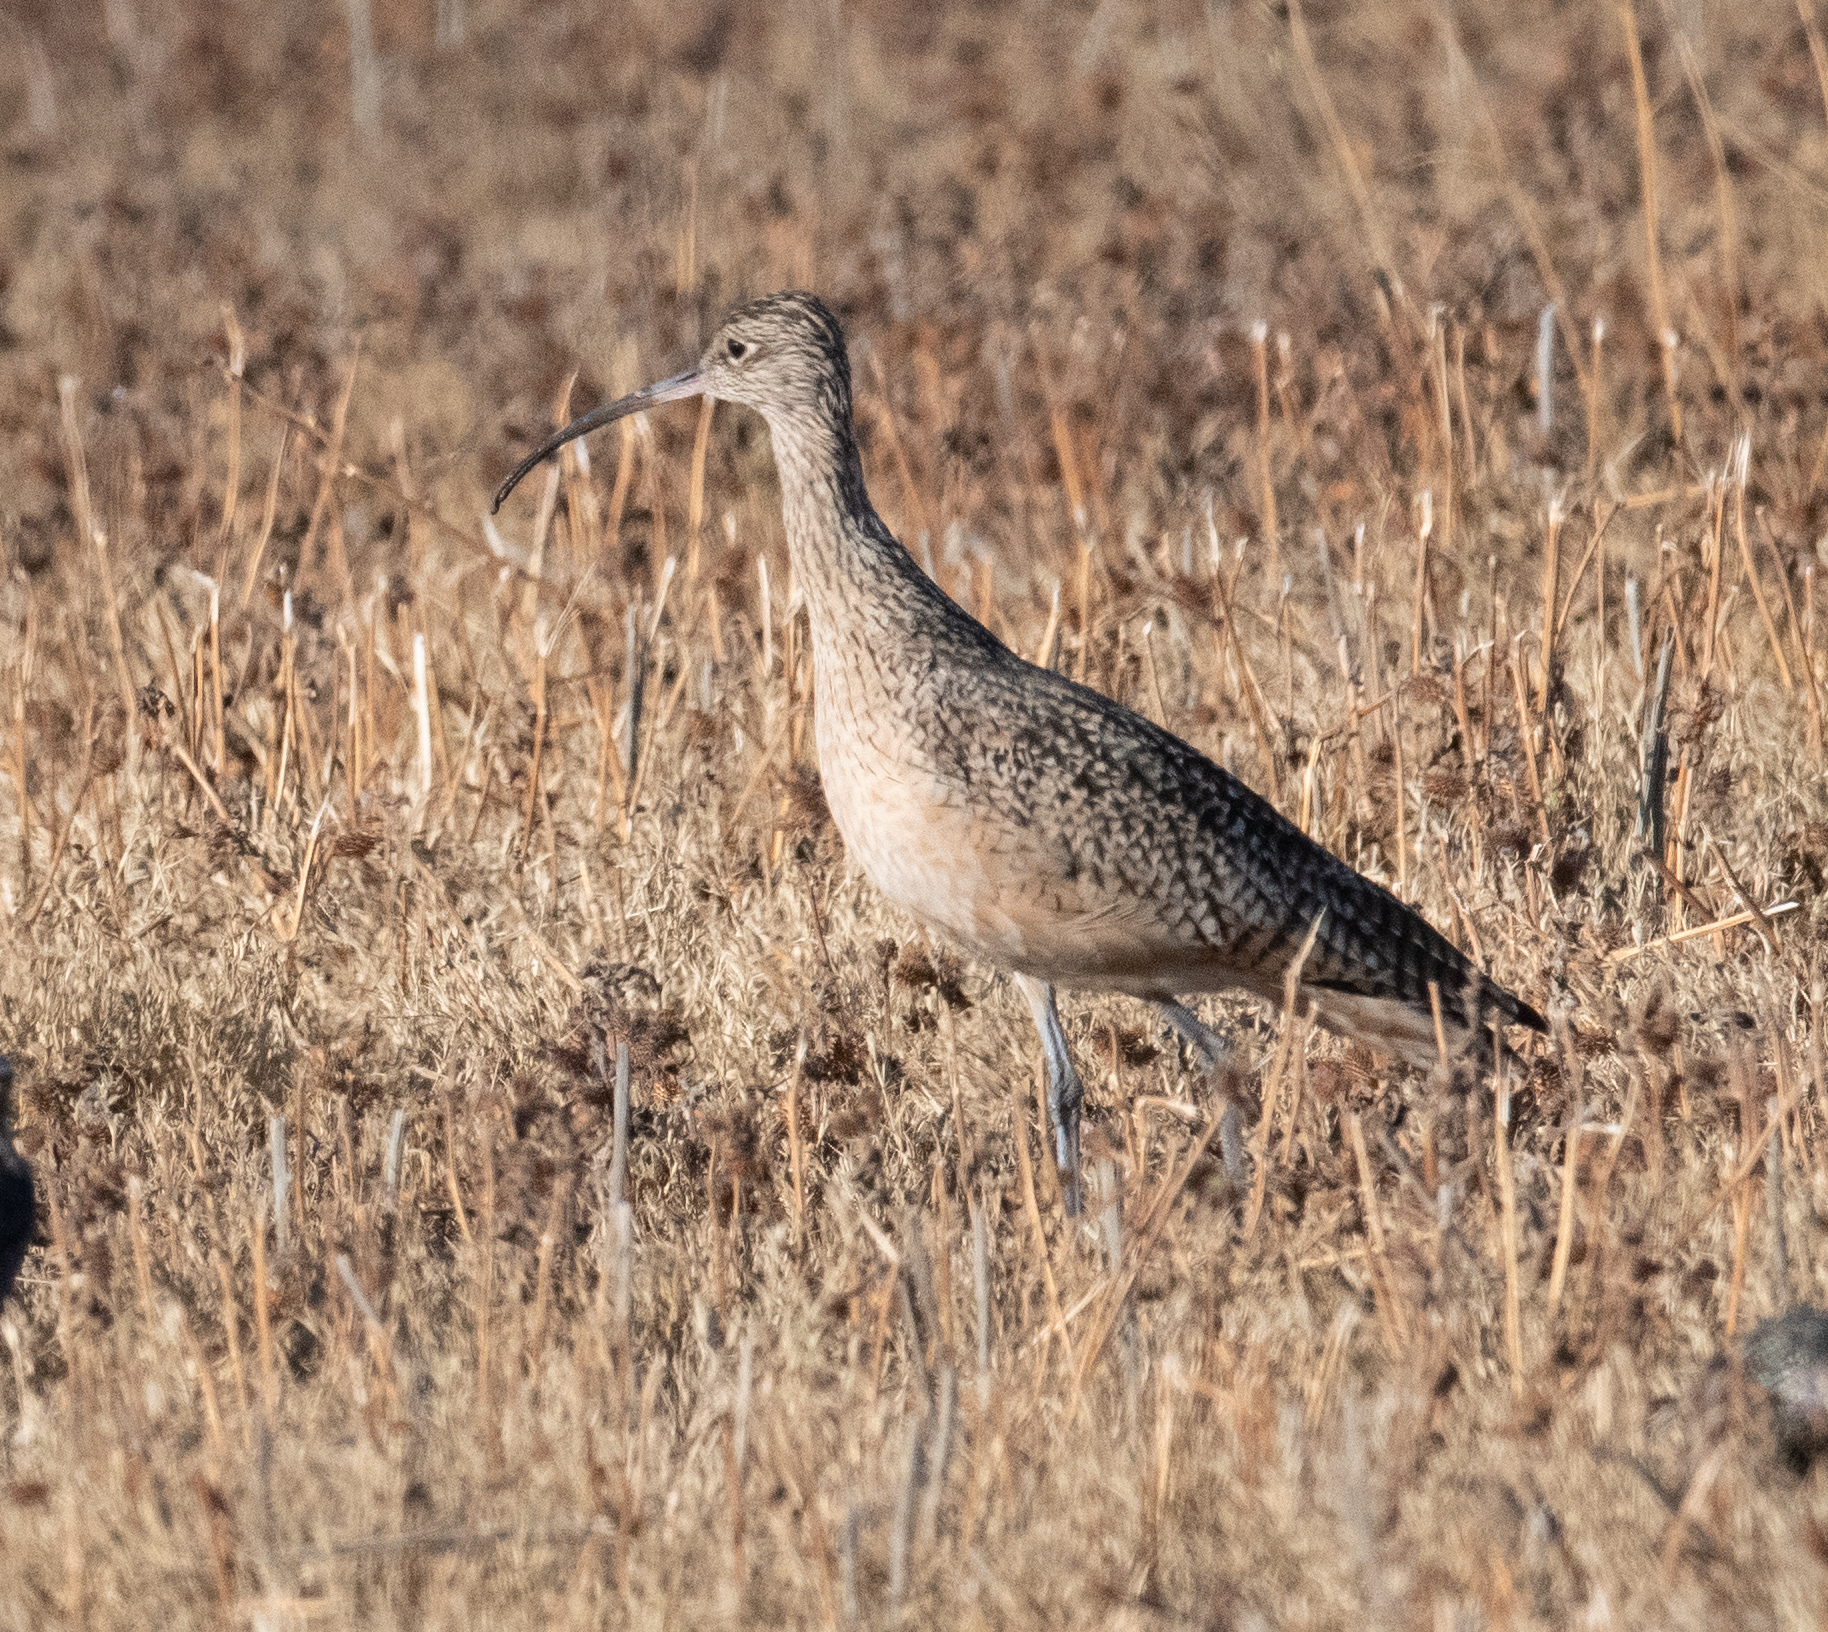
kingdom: Animalia
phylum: Chordata
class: Aves
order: Charadriiformes
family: Scolopacidae
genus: Numenius
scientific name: Numenius americanus
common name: Long-billed curlew
